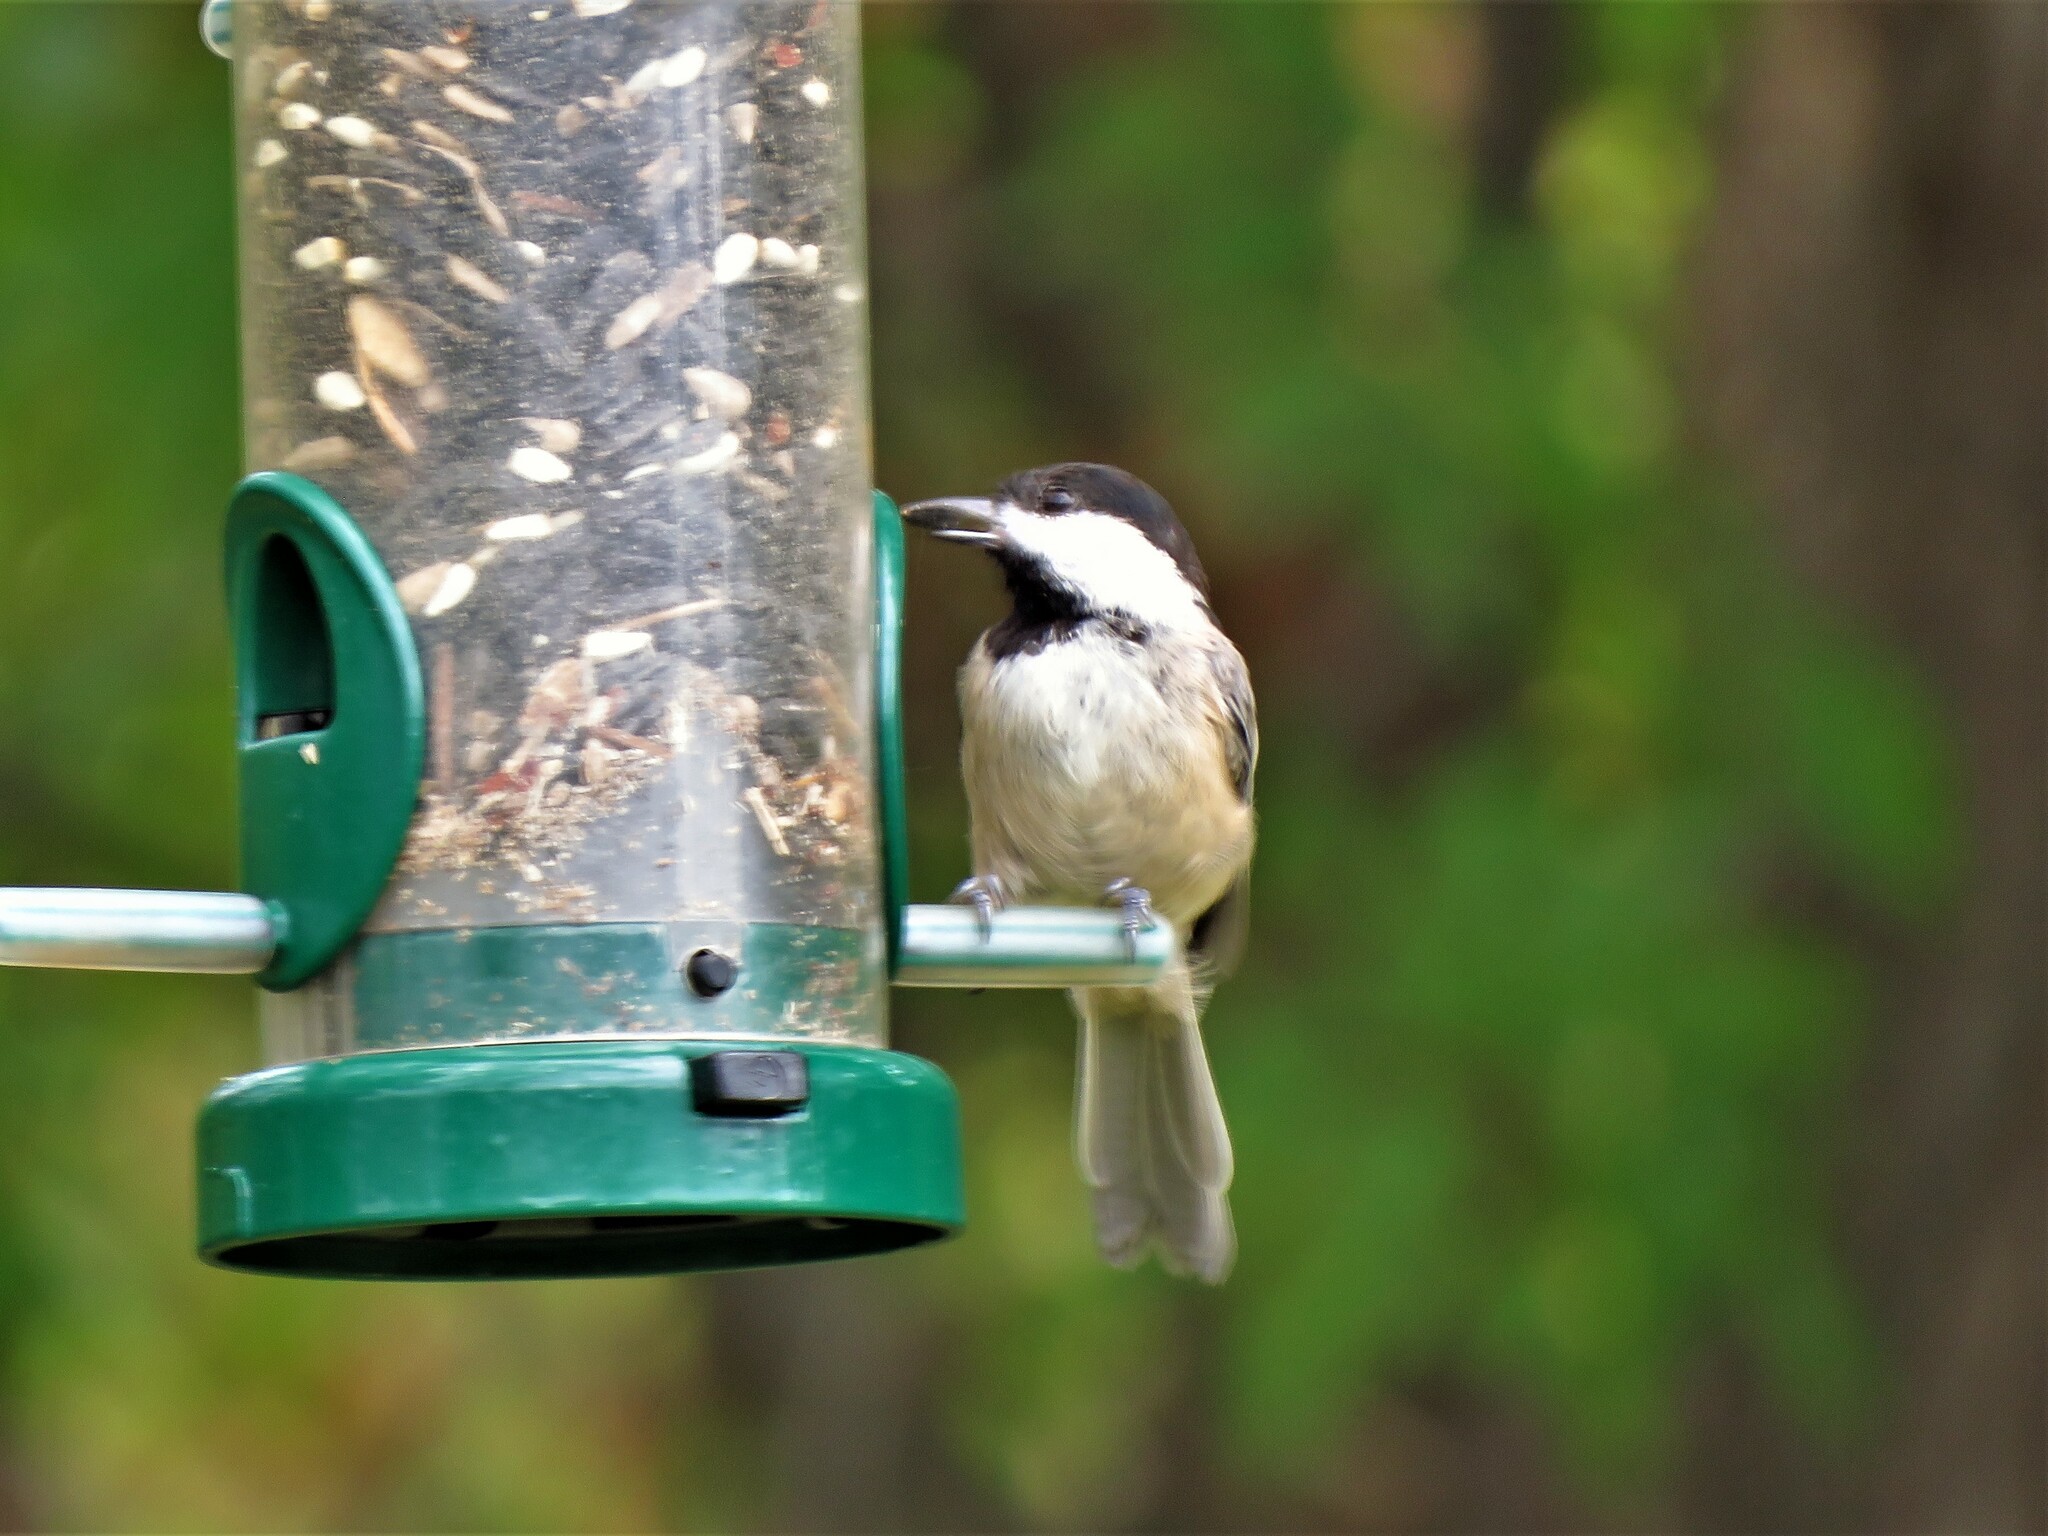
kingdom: Animalia
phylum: Chordata
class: Aves
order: Passeriformes
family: Paridae
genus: Poecile
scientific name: Poecile carolinensis
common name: Carolina chickadee
